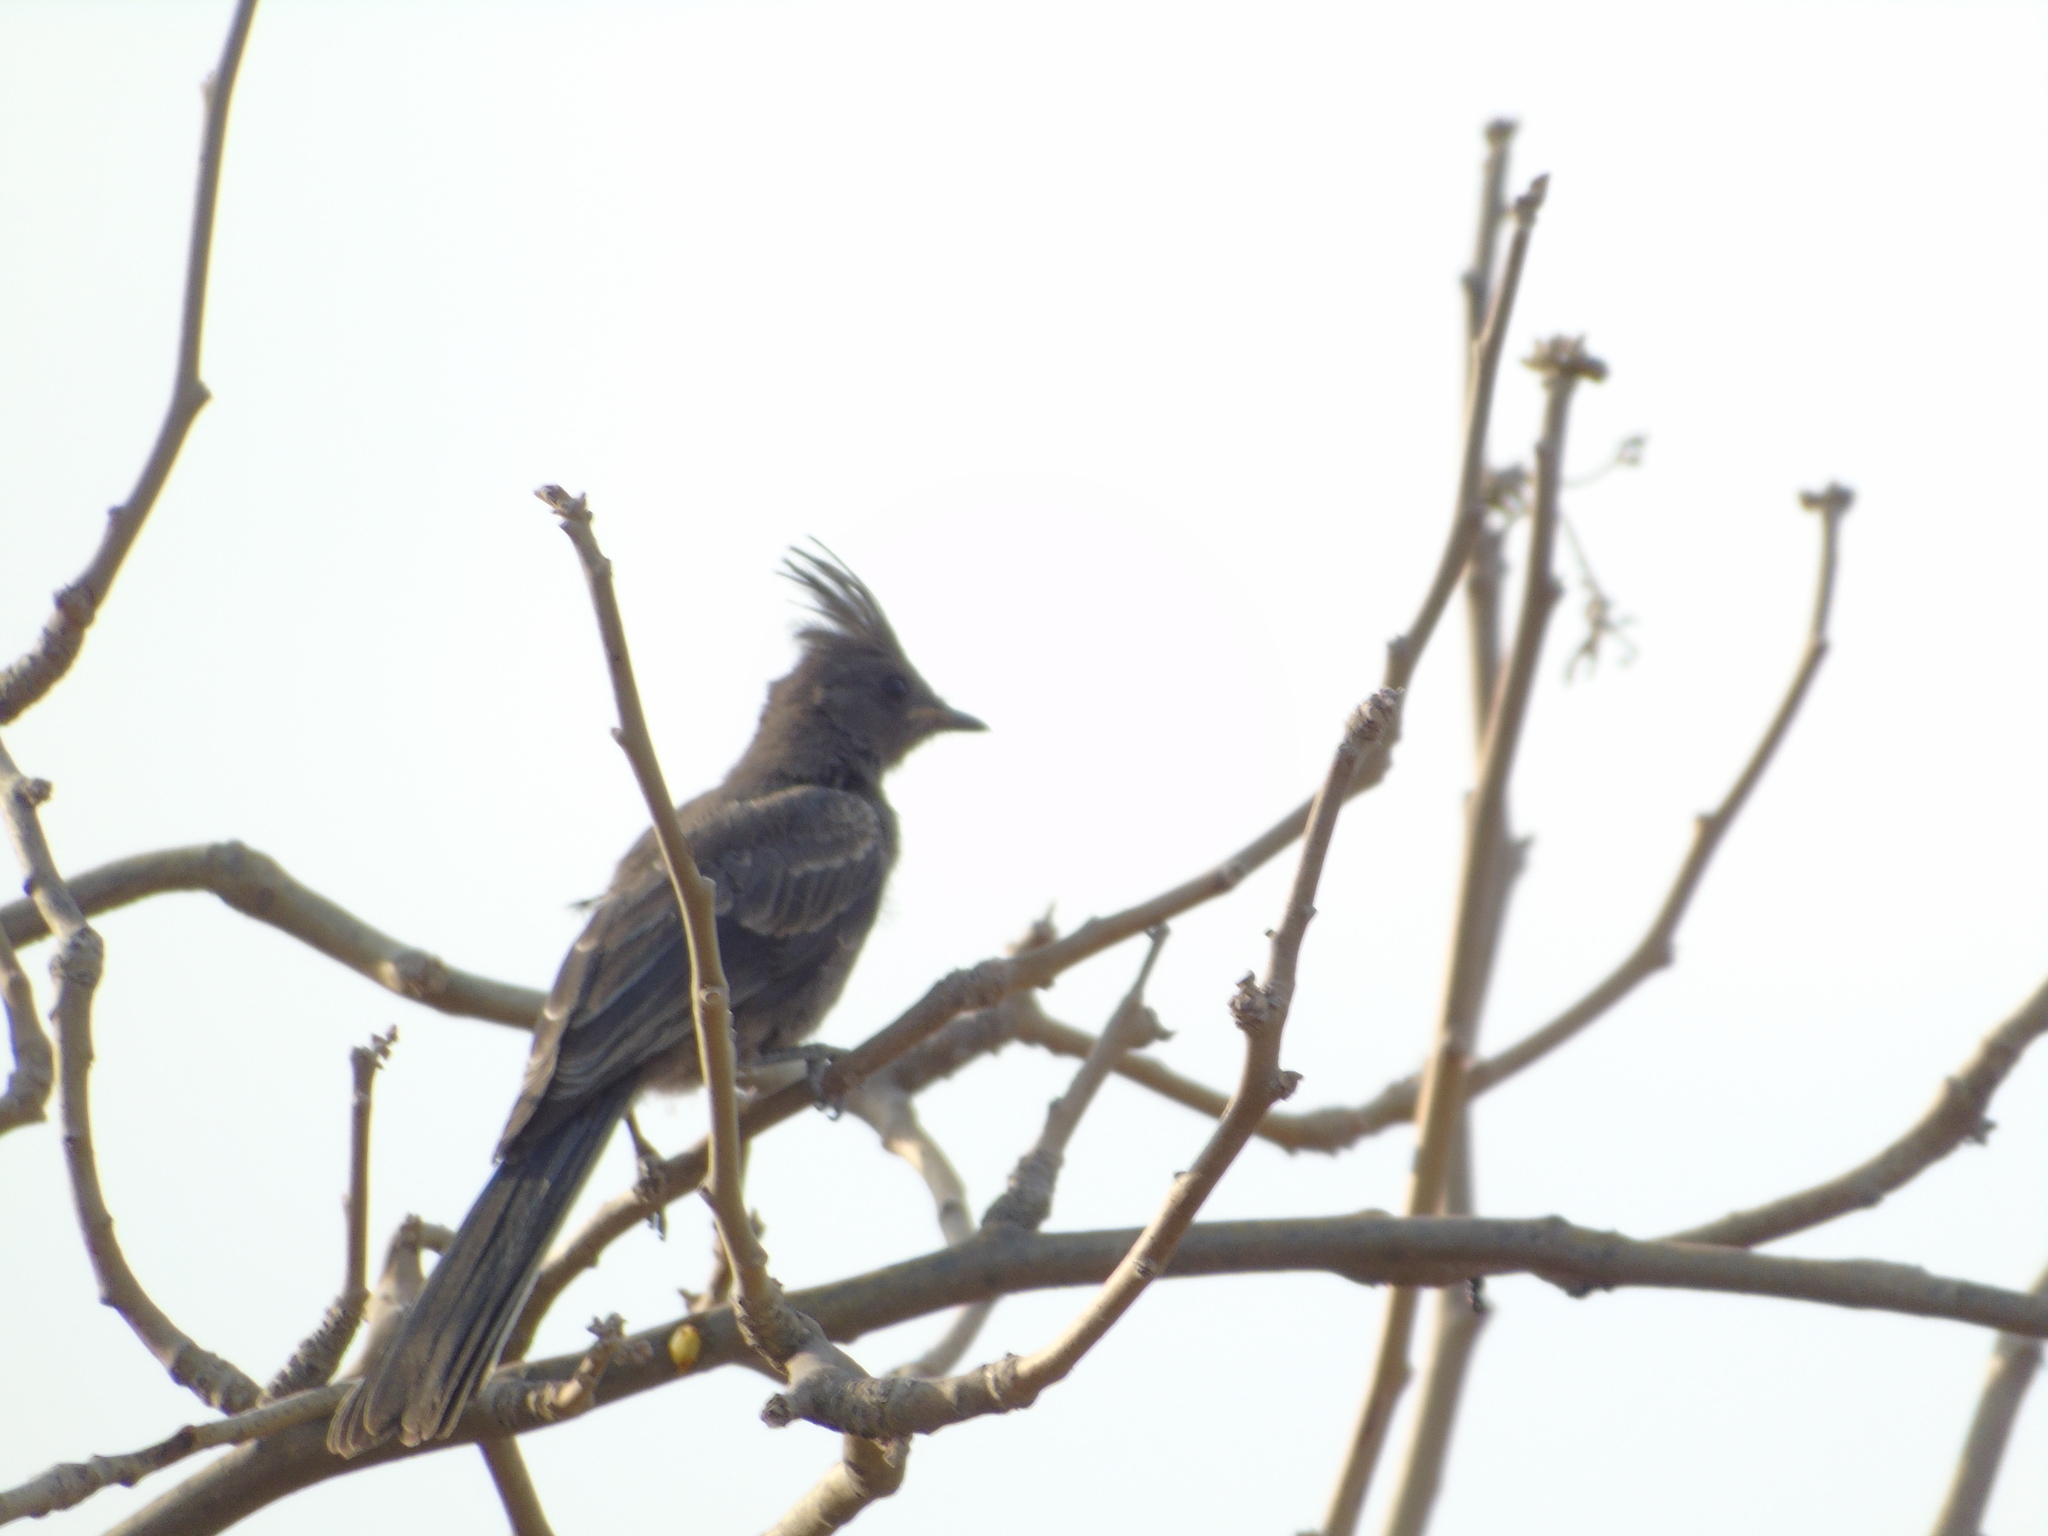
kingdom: Animalia
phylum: Chordata
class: Aves
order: Passeriformes
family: Ptilogonatidae
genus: Phainopepla
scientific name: Phainopepla nitens
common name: Phainopepla
